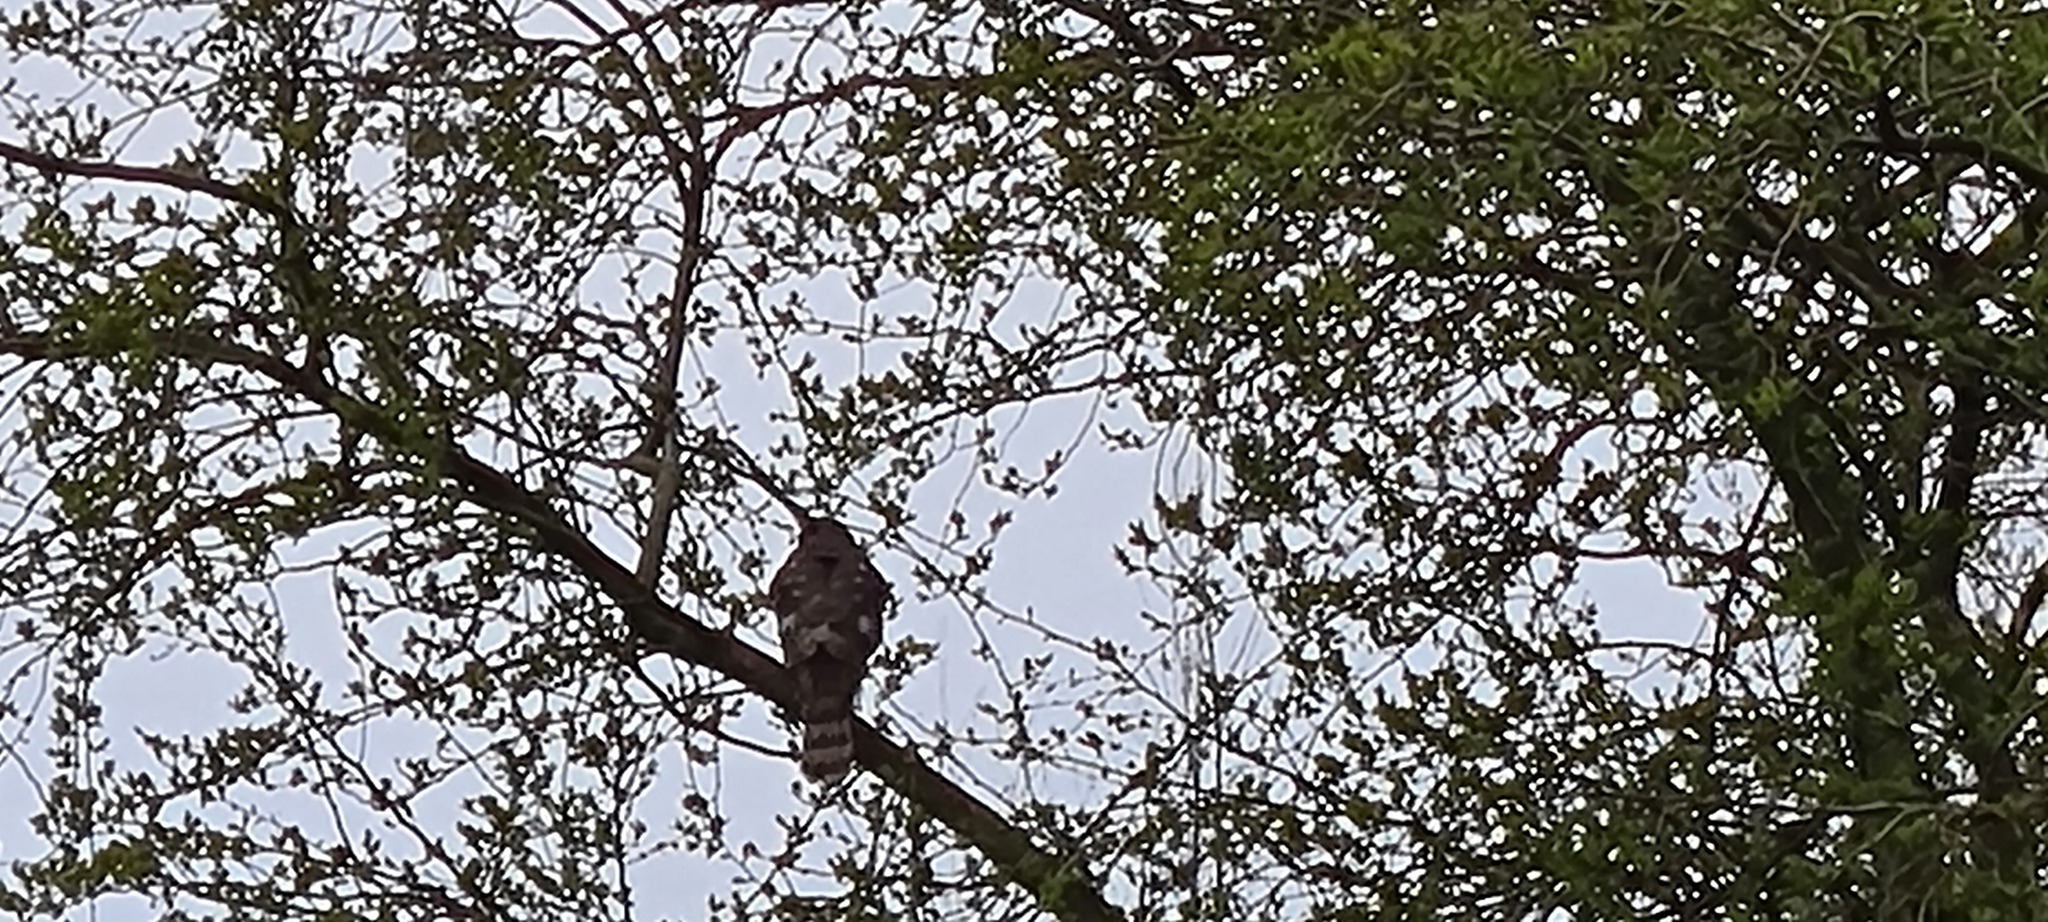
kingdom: Animalia
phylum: Chordata
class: Aves
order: Accipitriformes
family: Accipitridae
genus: Accipiter
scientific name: Accipiter nisus
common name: Eurasian sparrowhawk
